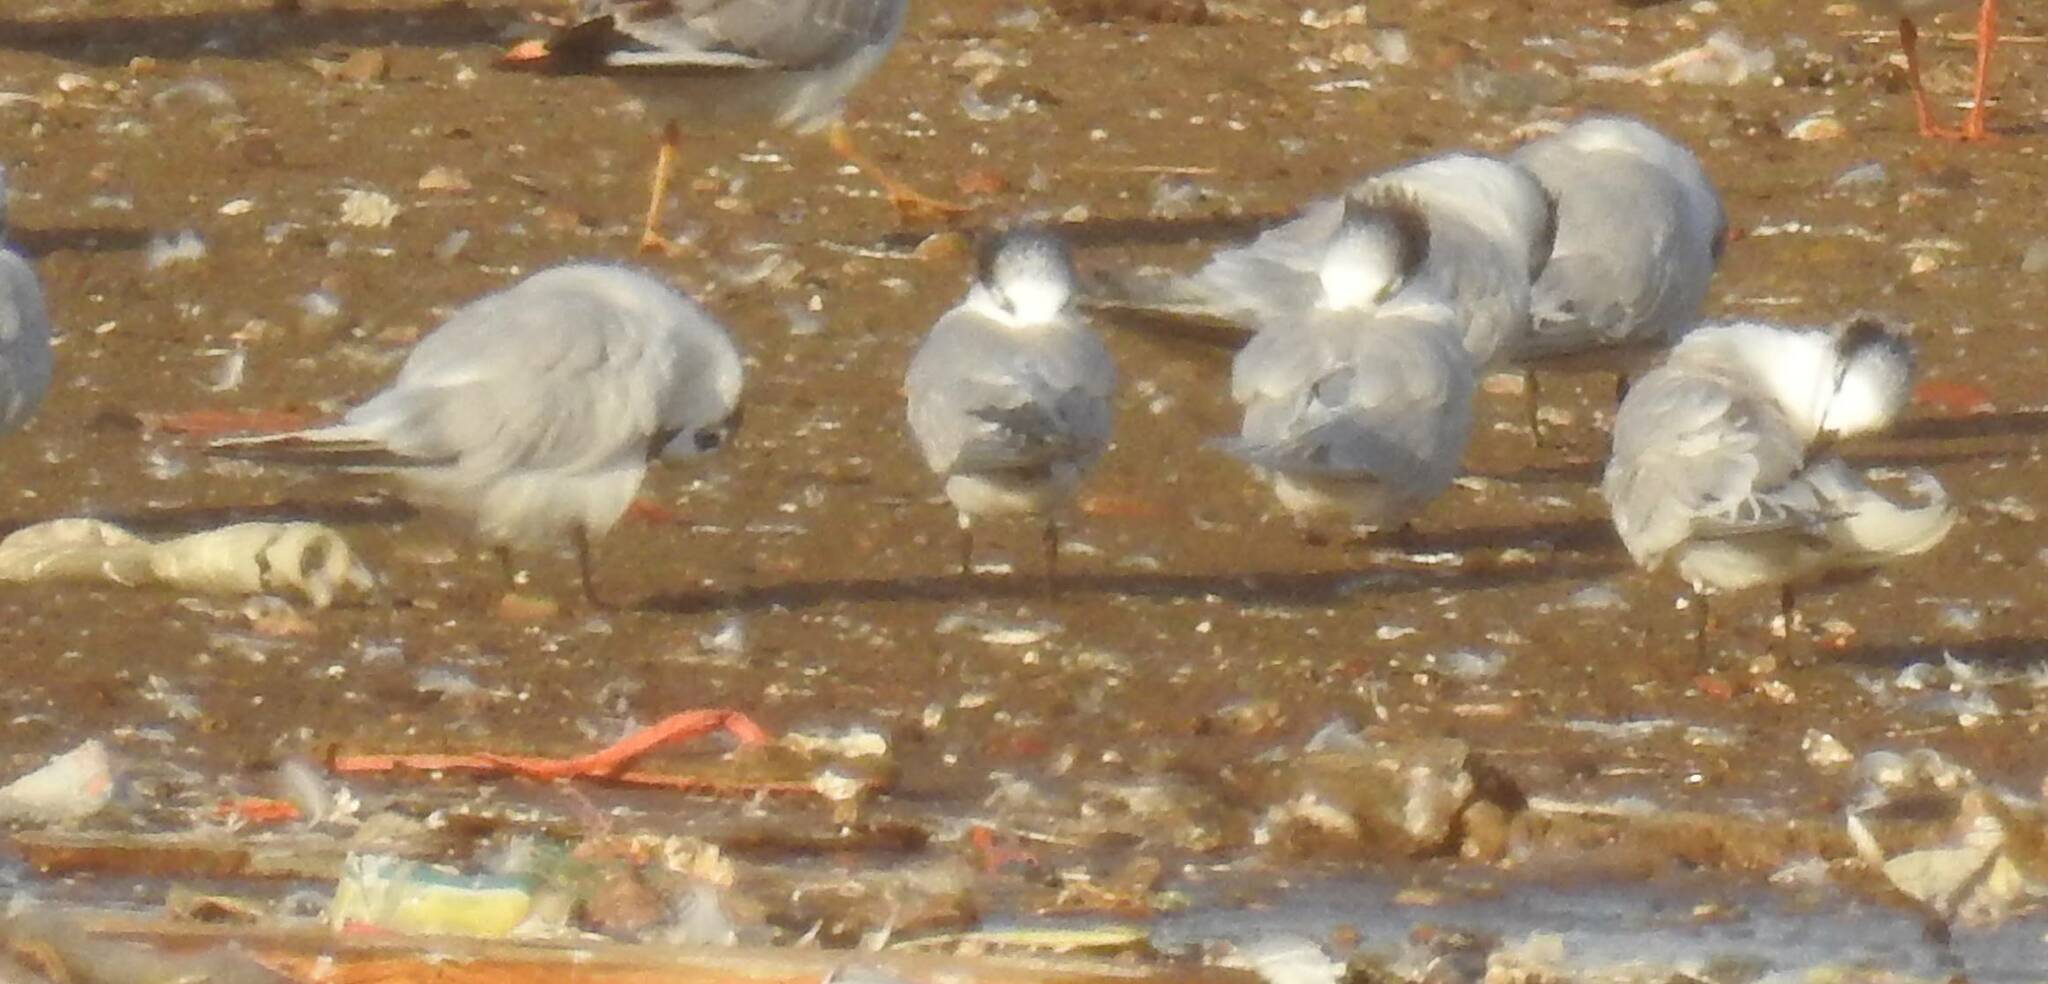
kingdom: Animalia
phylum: Chordata
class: Aves
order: Charadriiformes
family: Laridae
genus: Thalasseus
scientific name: Thalasseus sandvicensis
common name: Sandwich tern
